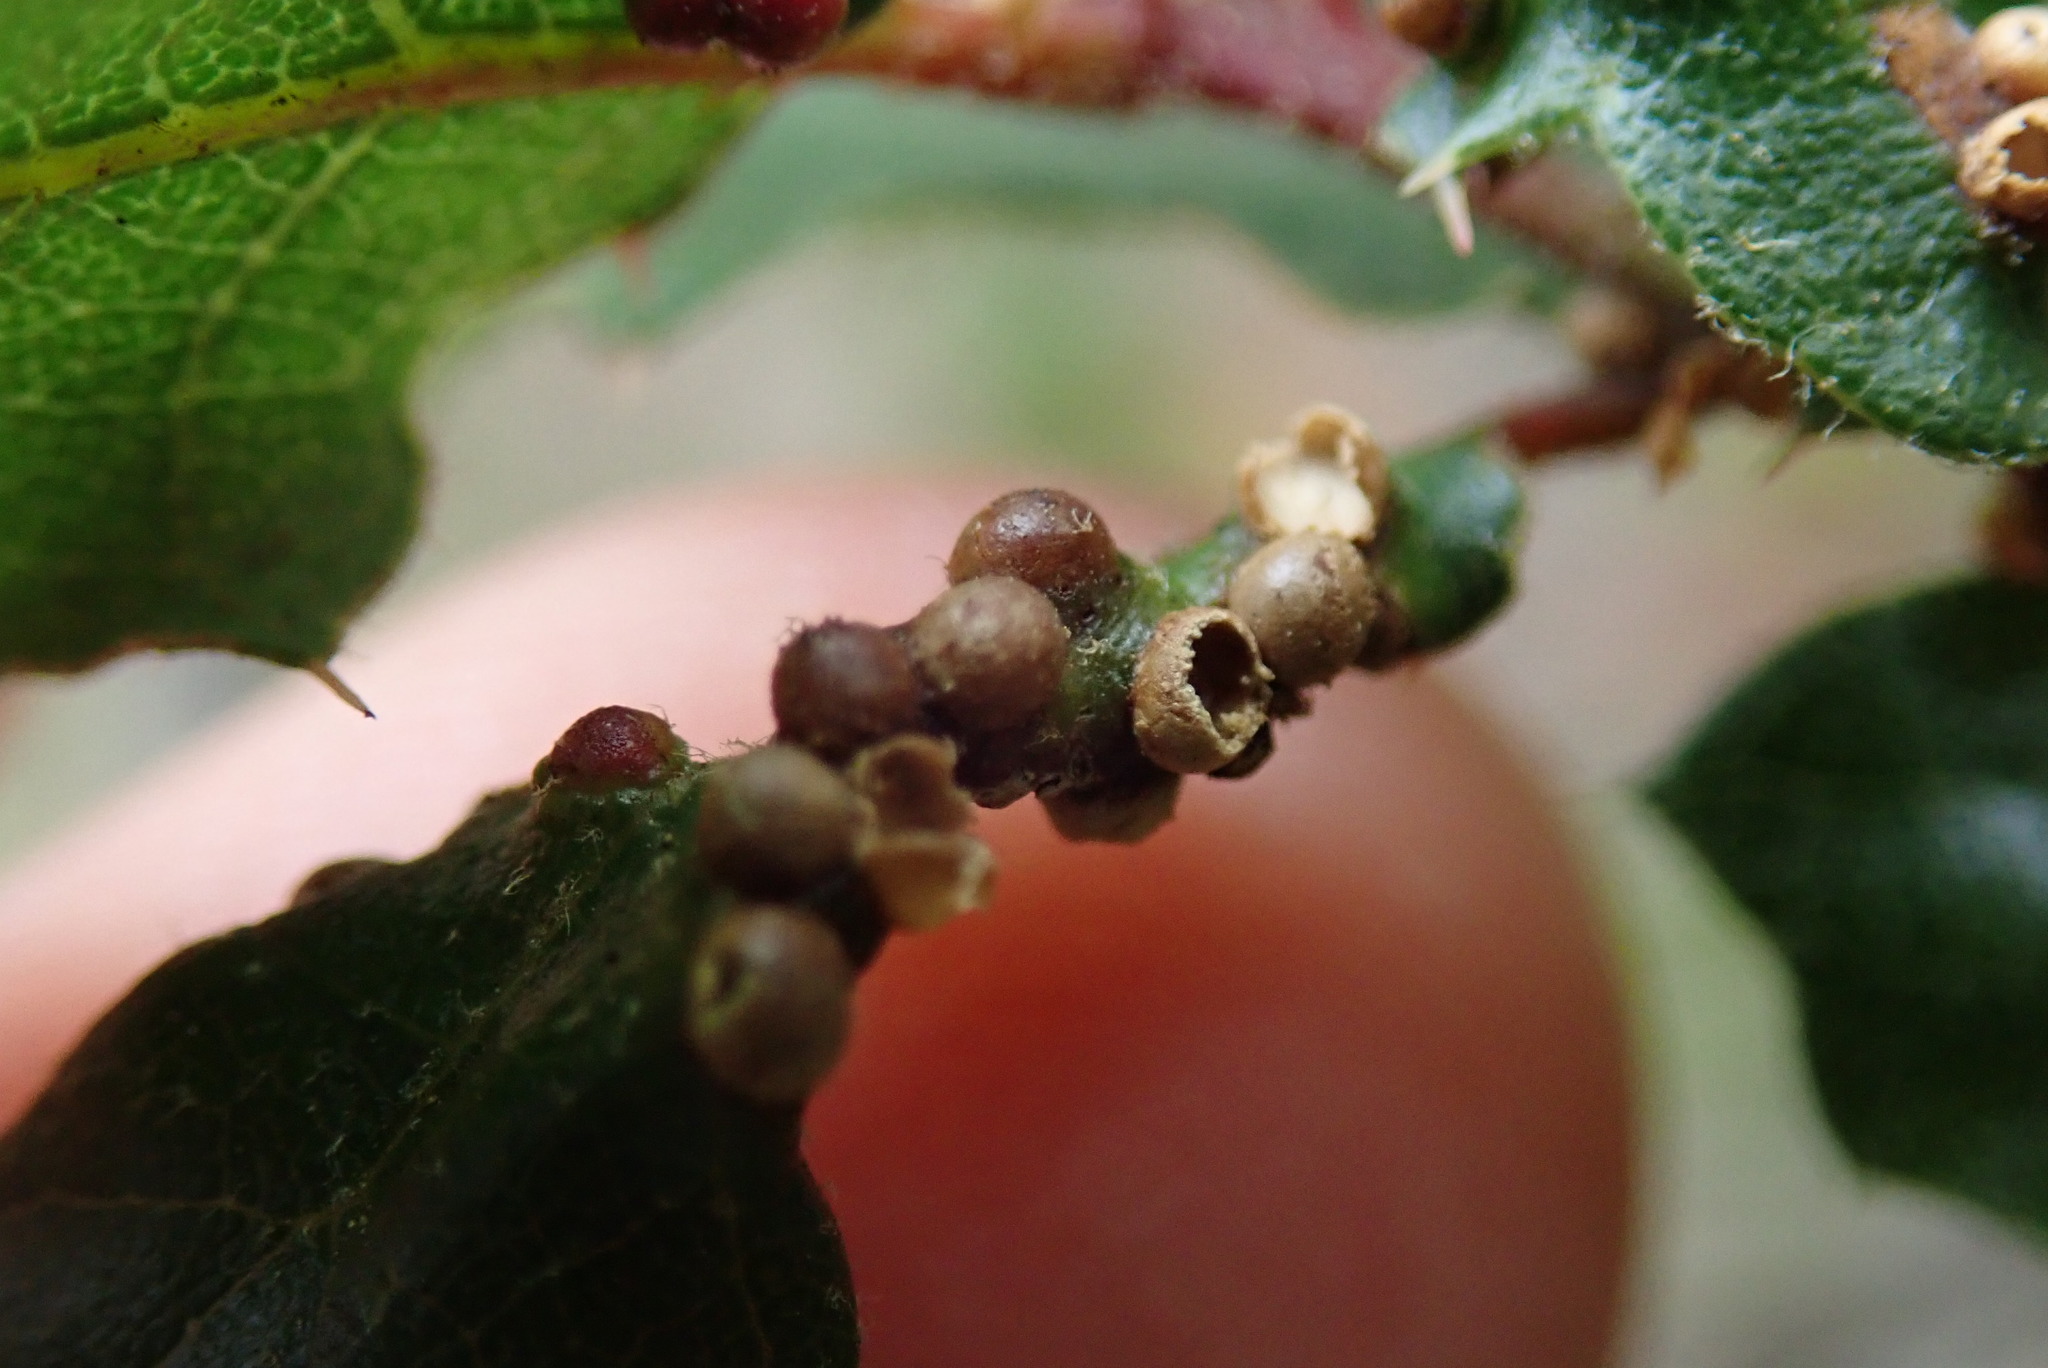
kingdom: Animalia
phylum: Arthropoda
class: Insecta
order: Hymenoptera
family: Cynipidae
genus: Neuroterus
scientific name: Neuroterus saltarius
